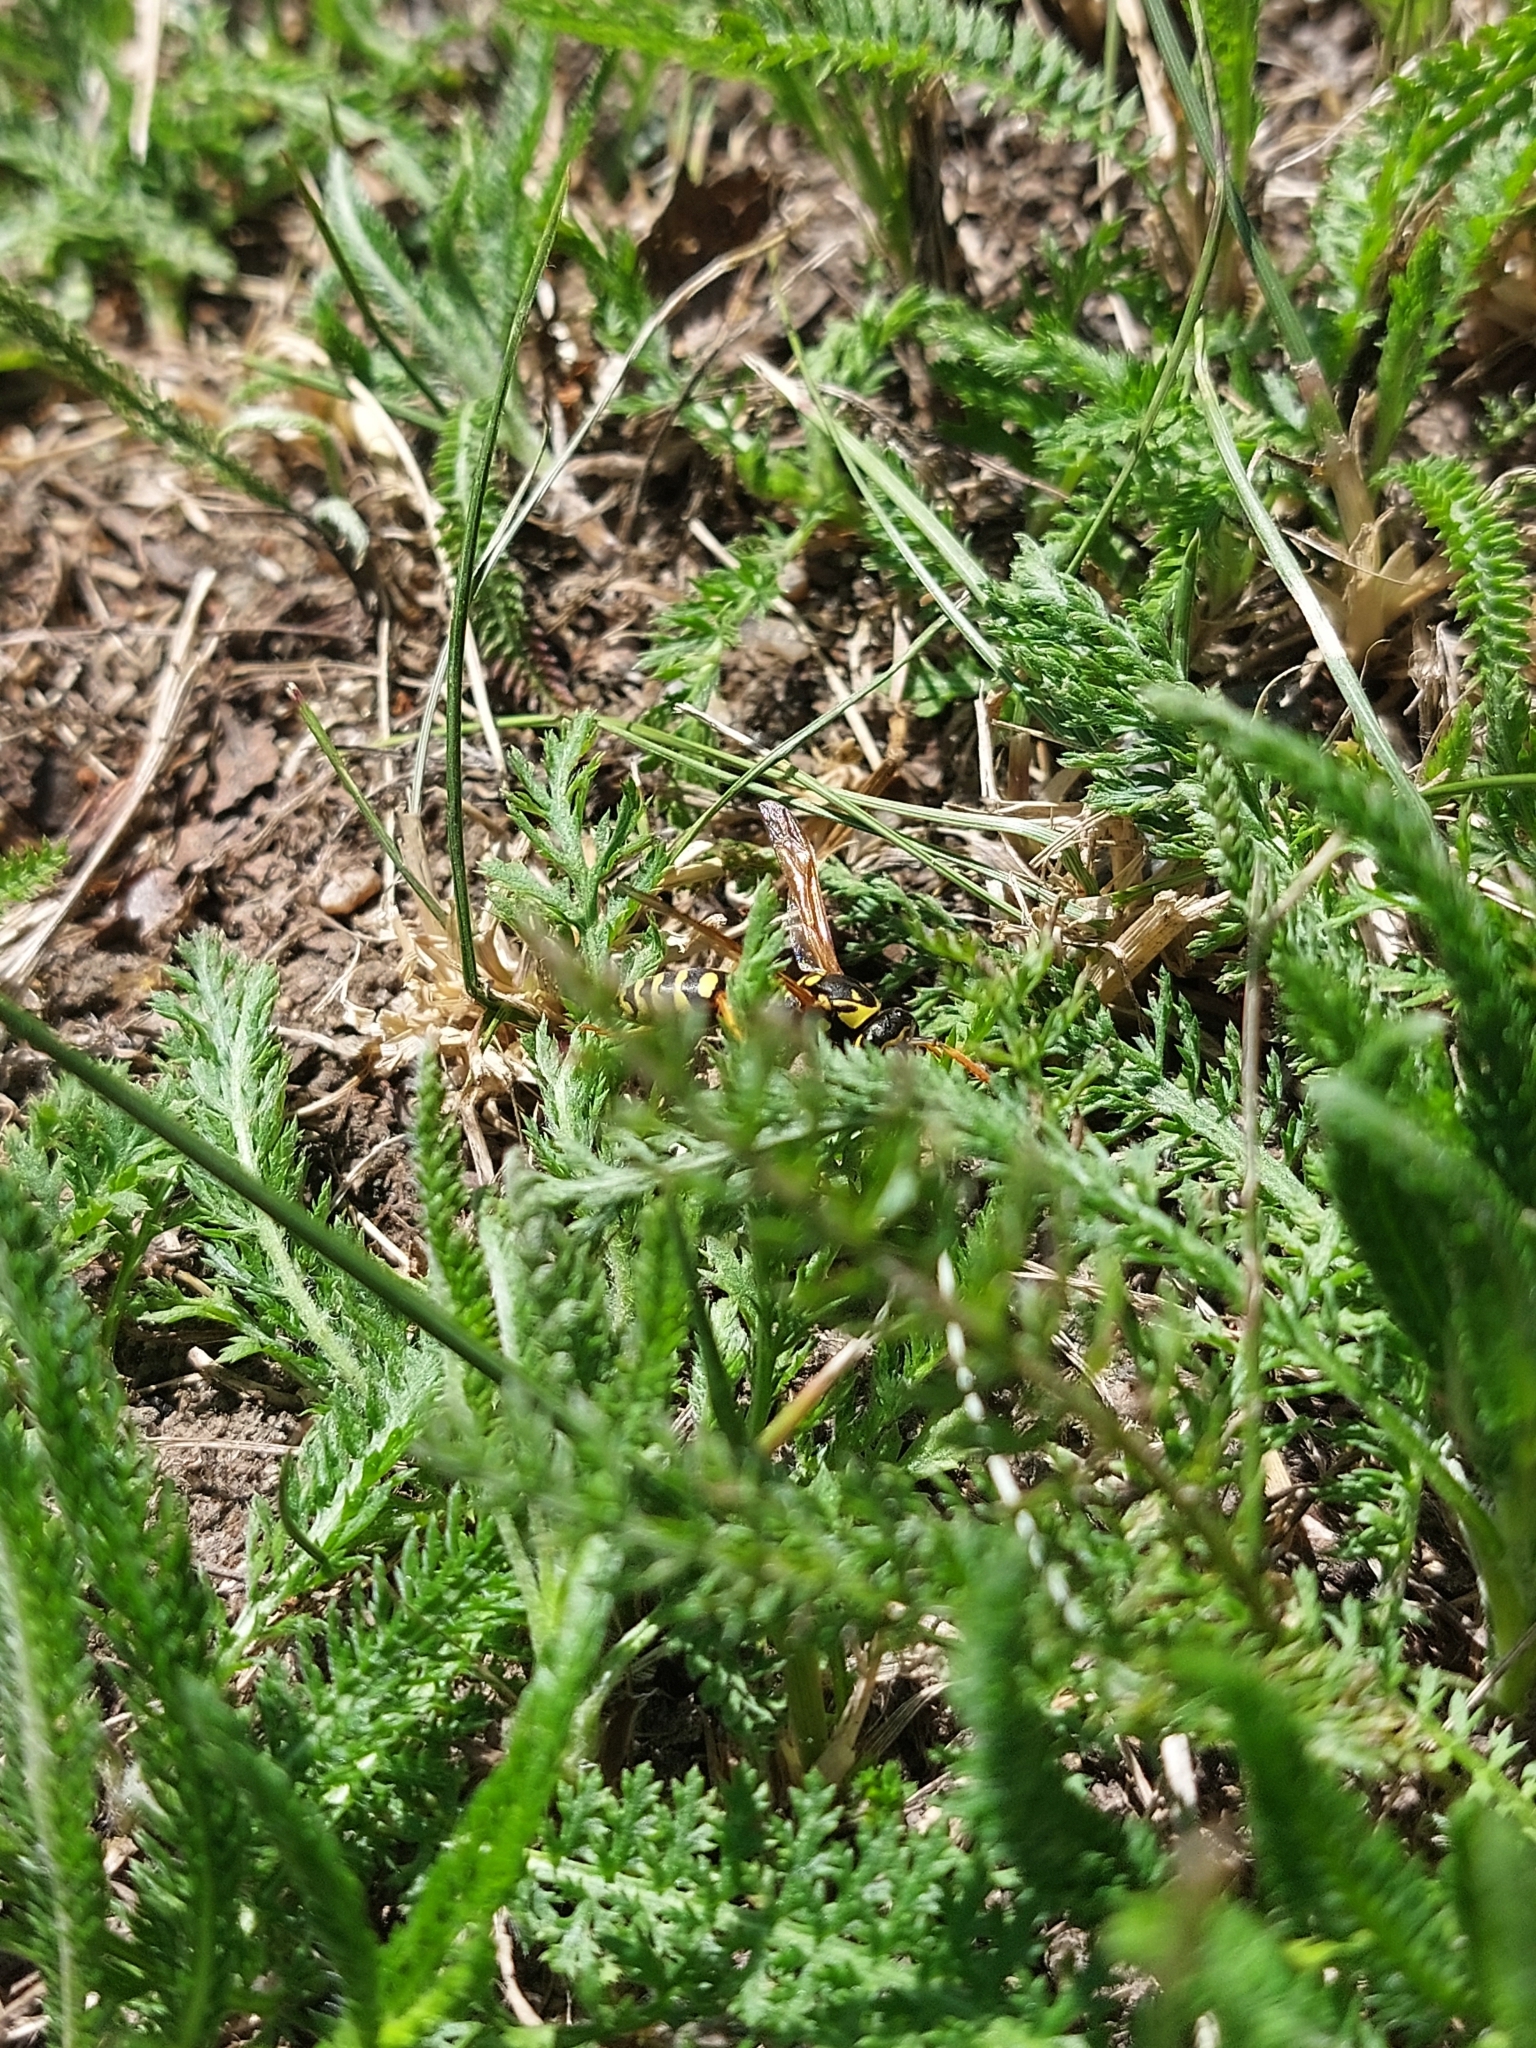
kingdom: Animalia
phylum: Arthropoda
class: Insecta
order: Hymenoptera
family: Eumenidae
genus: Polistes
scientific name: Polistes dominula
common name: Paper wasp
